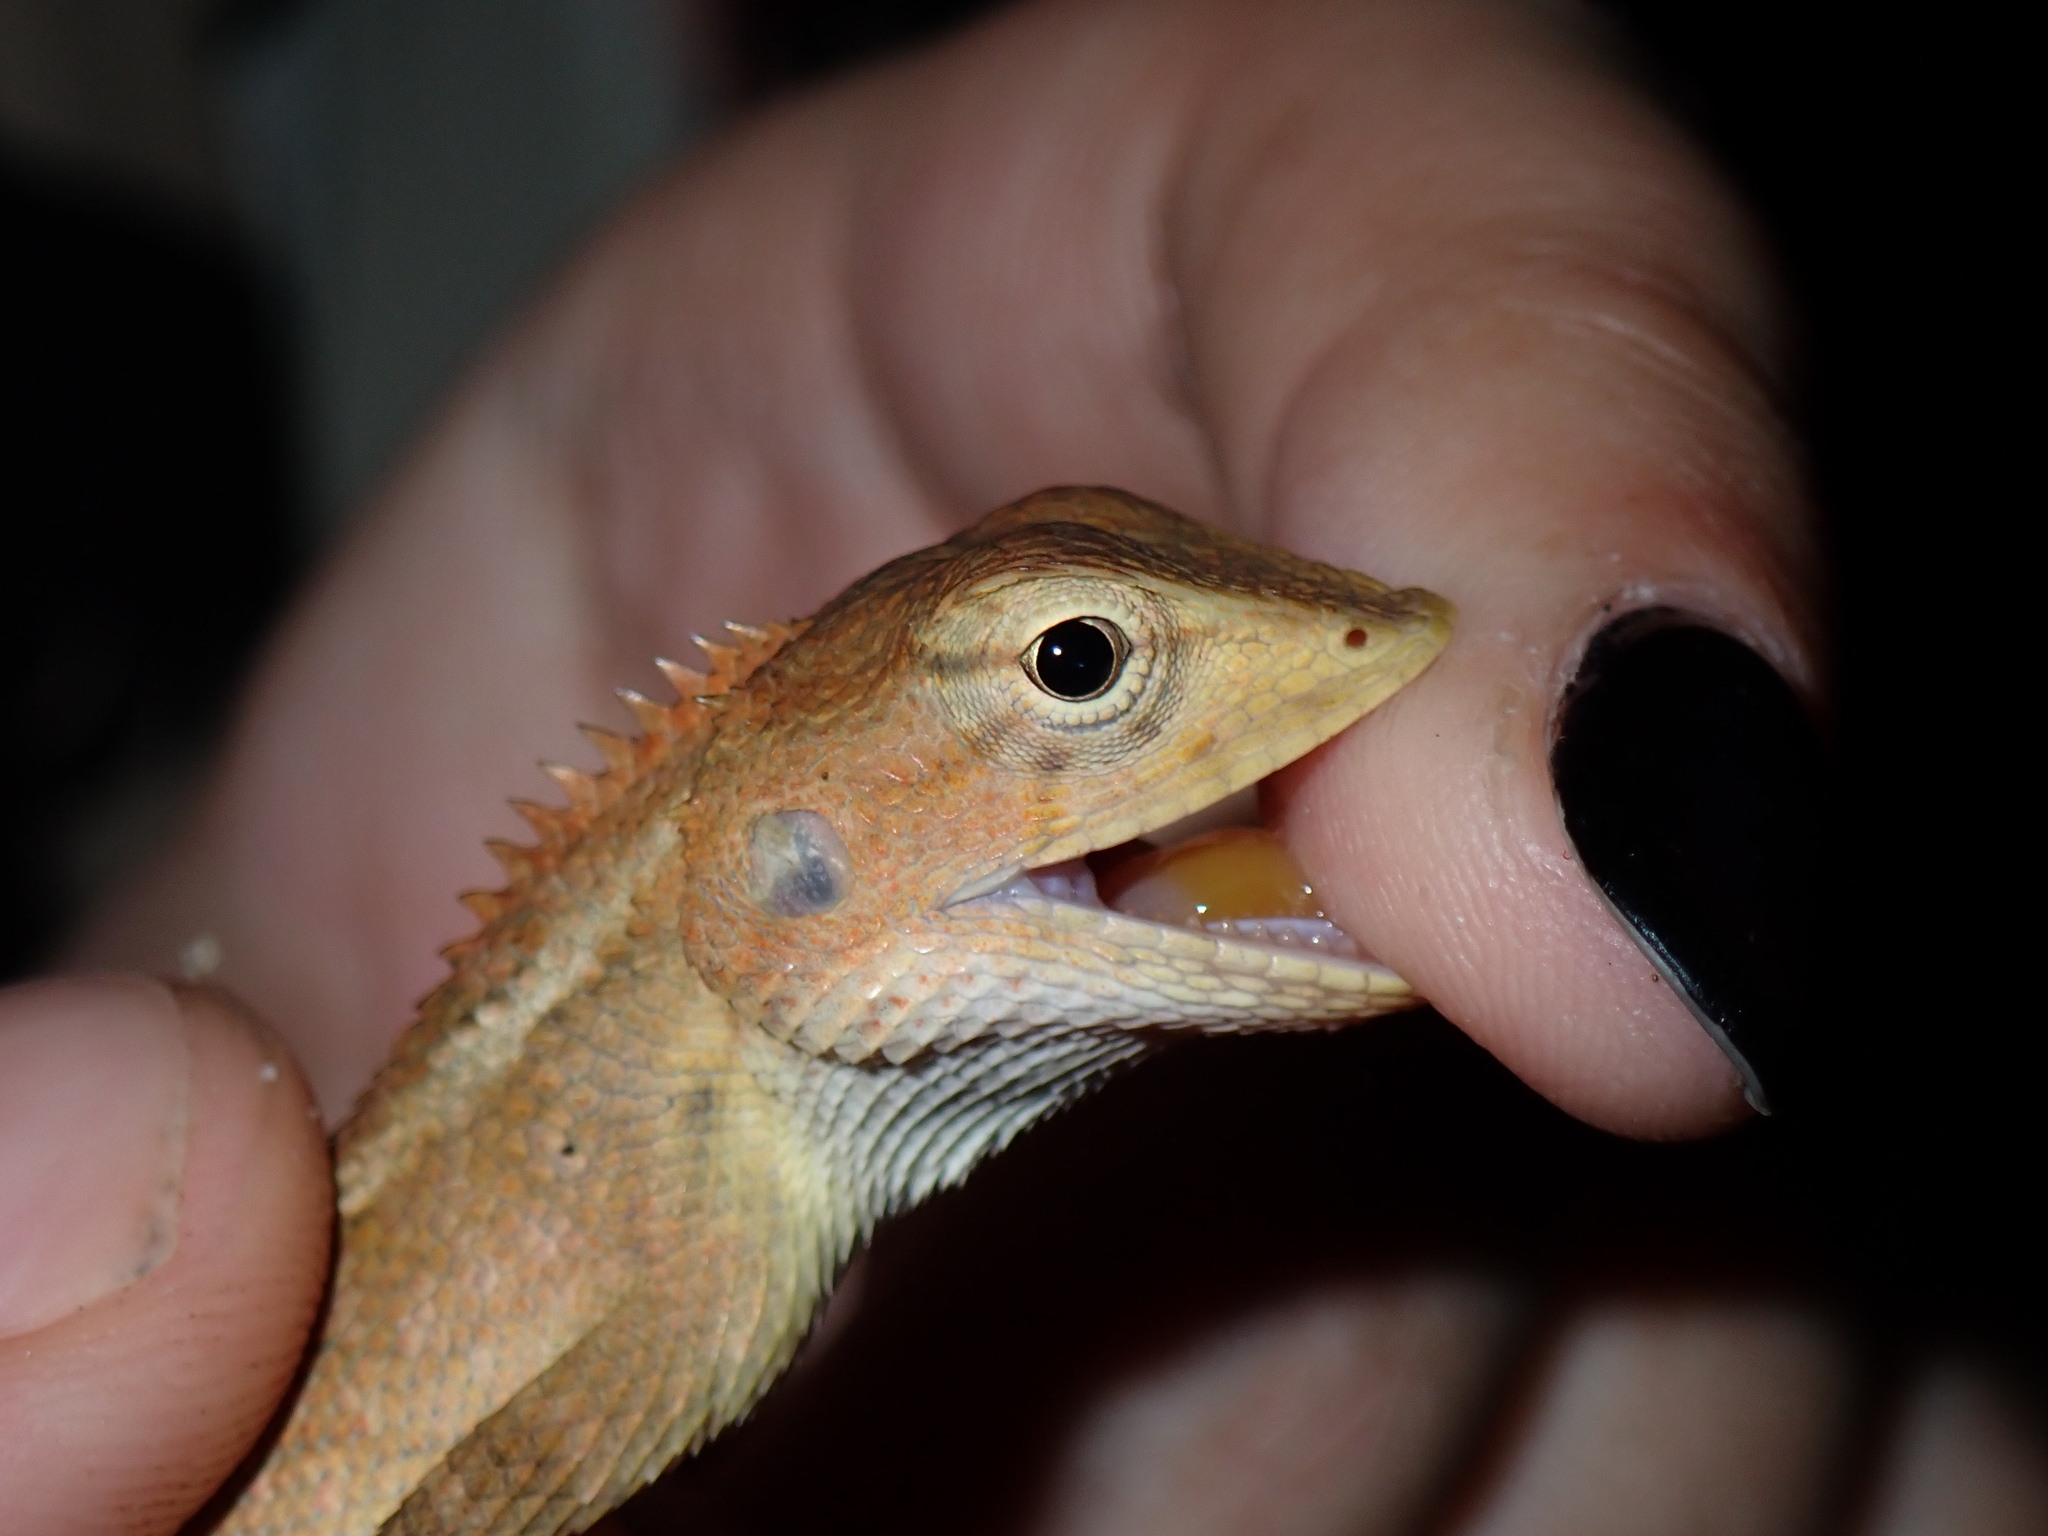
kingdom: Animalia
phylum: Chordata
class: Squamata
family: Agamidae
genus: Calotes
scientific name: Calotes versicolor
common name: Oriental garden lizard
